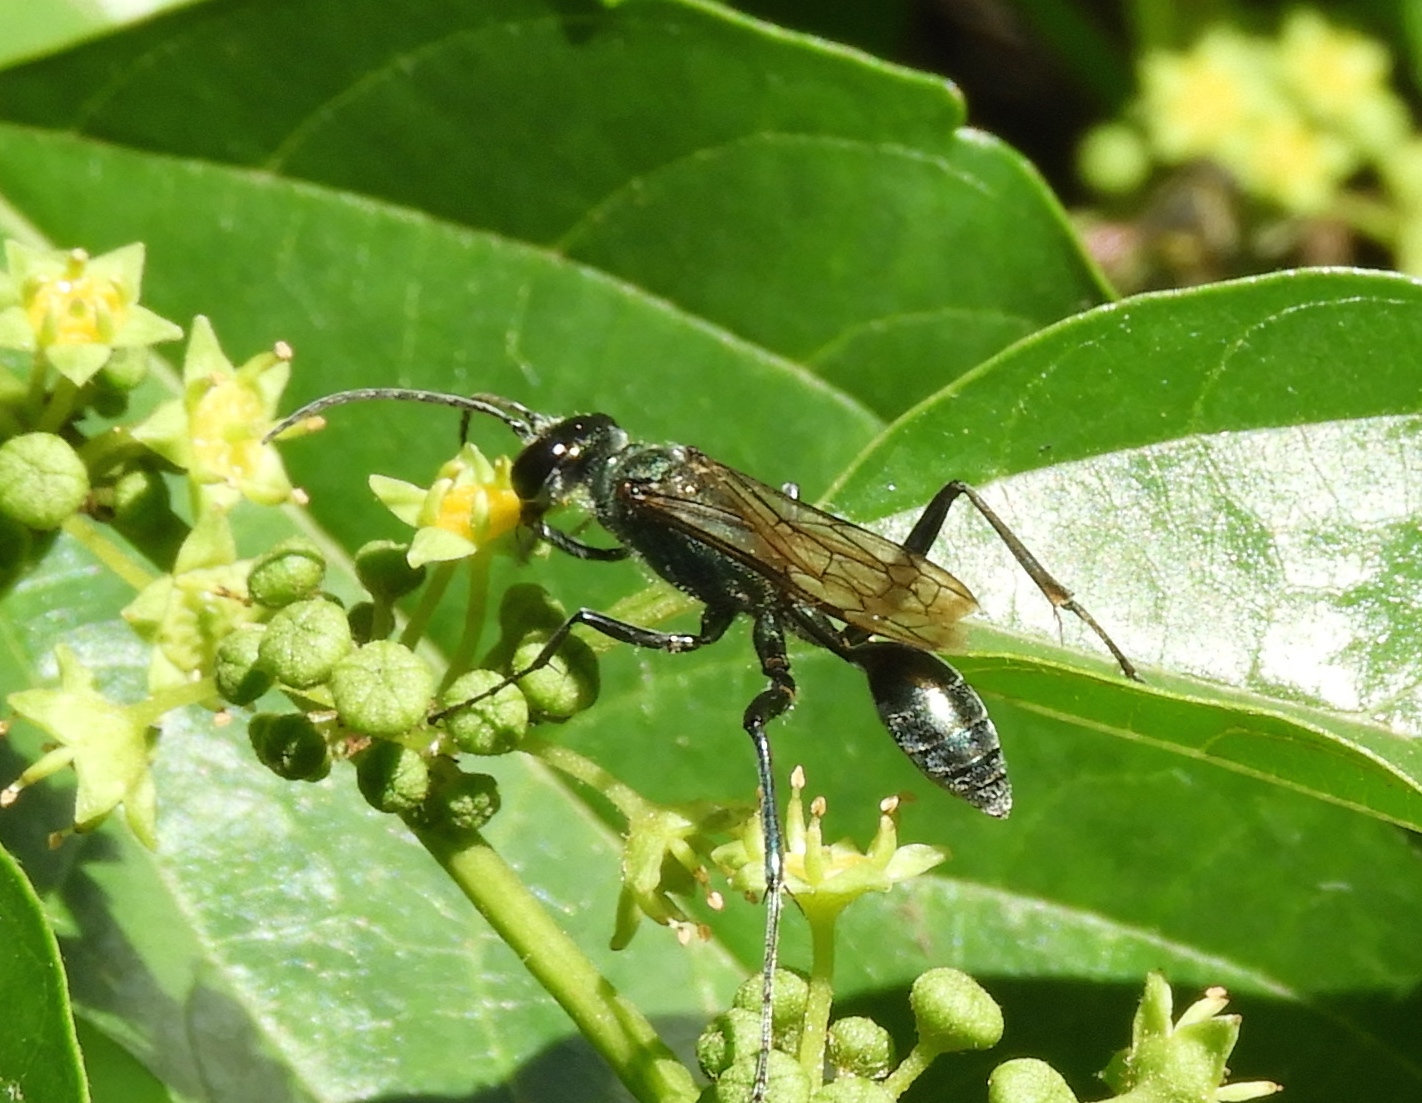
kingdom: Animalia
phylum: Arthropoda
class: Insecta
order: Hymenoptera
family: Sphecidae
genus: Chalybion
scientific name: Chalybion zimmermanni
